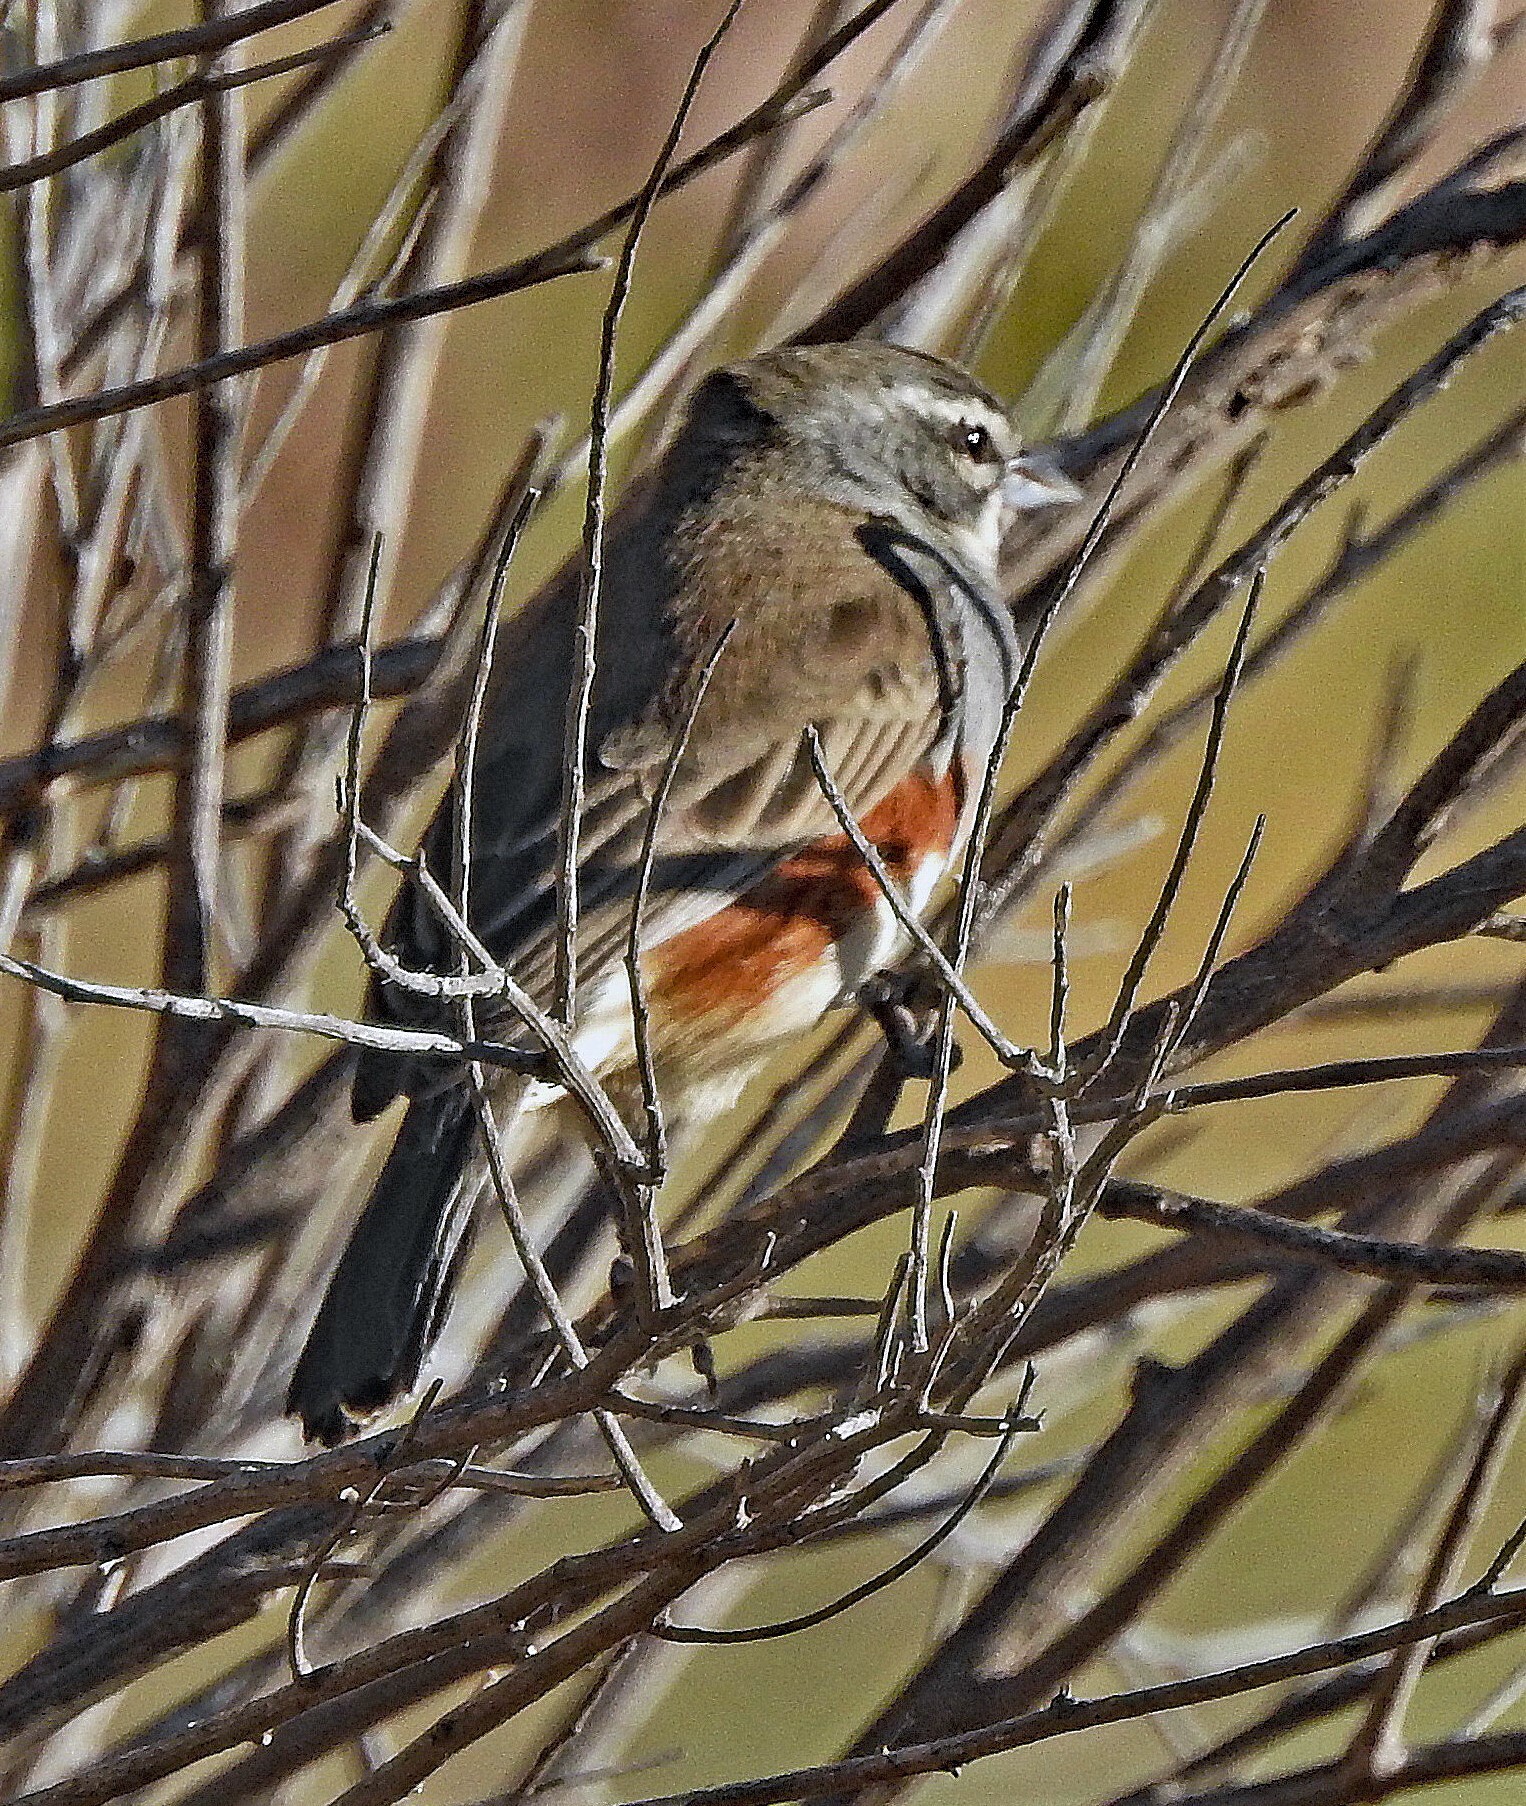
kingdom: Animalia
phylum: Chordata
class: Aves
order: Passeriformes
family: Thraupidae
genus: Poospizopsis
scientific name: Poospizopsis hypocondria
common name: Rufous-sided warbling-finch
